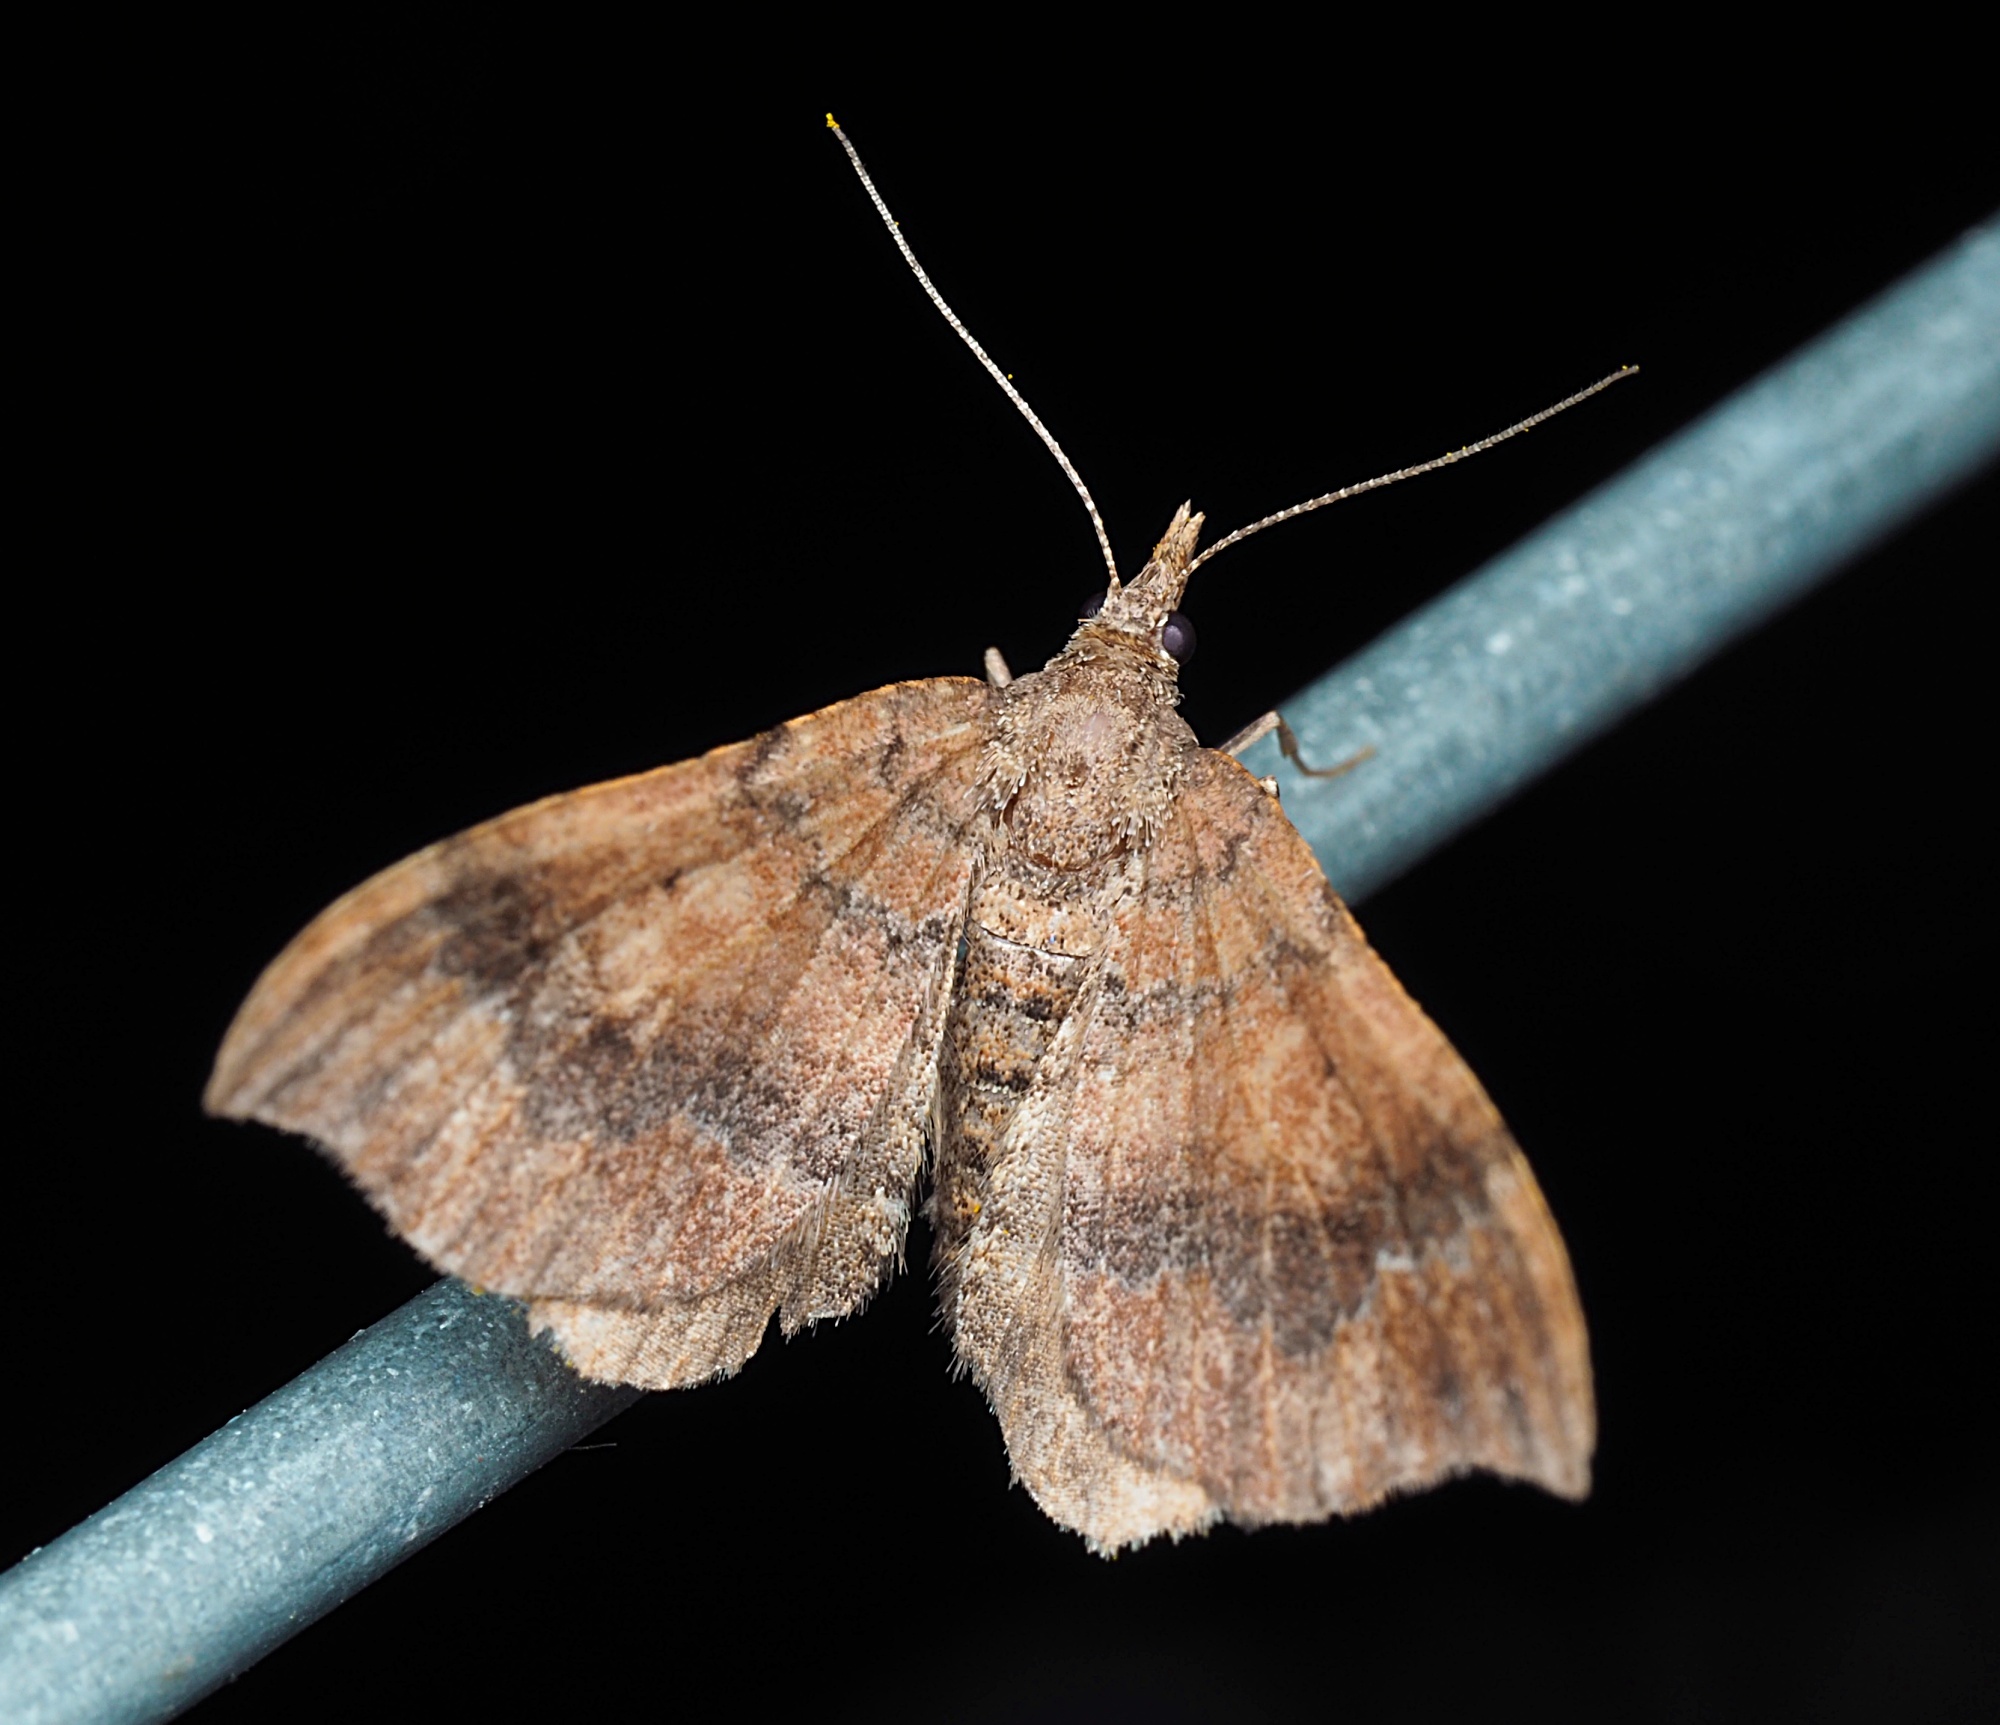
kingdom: Animalia
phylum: Arthropoda
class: Insecta
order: Lepidoptera
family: Geometridae
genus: Homodotis
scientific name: Homodotis megaspilata
